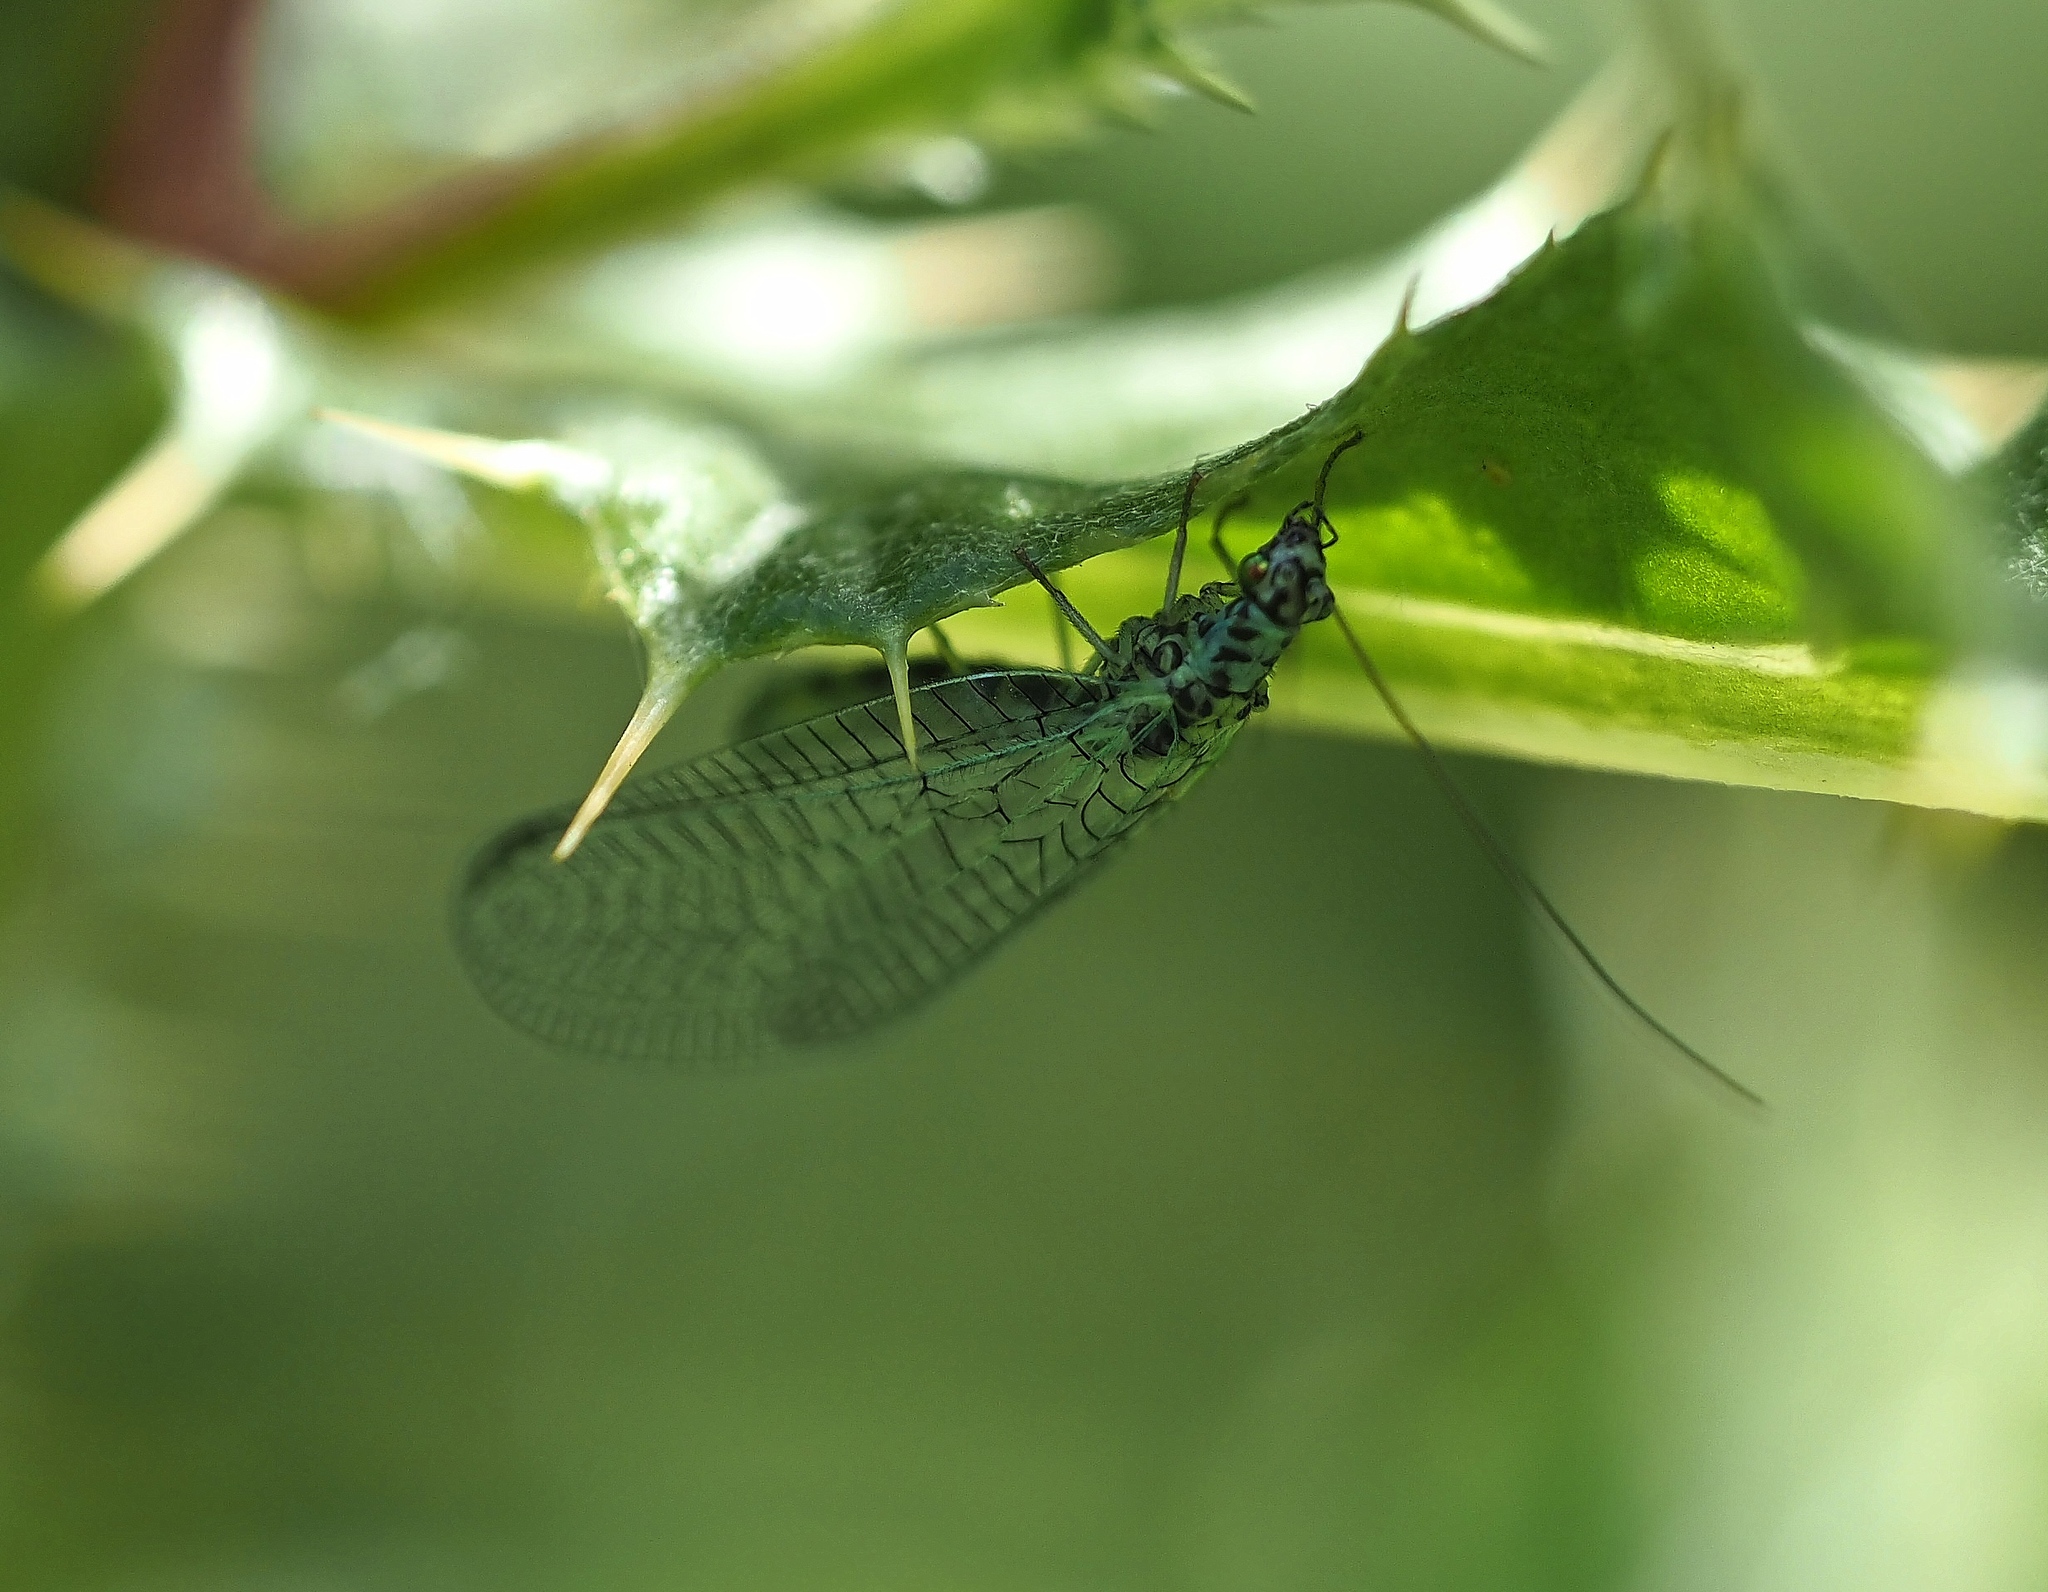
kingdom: Animalia
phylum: Arthropoda
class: Insecta
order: Neuroptera
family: Chrysopidae
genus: Chrysopa
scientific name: Chrysopa perla
